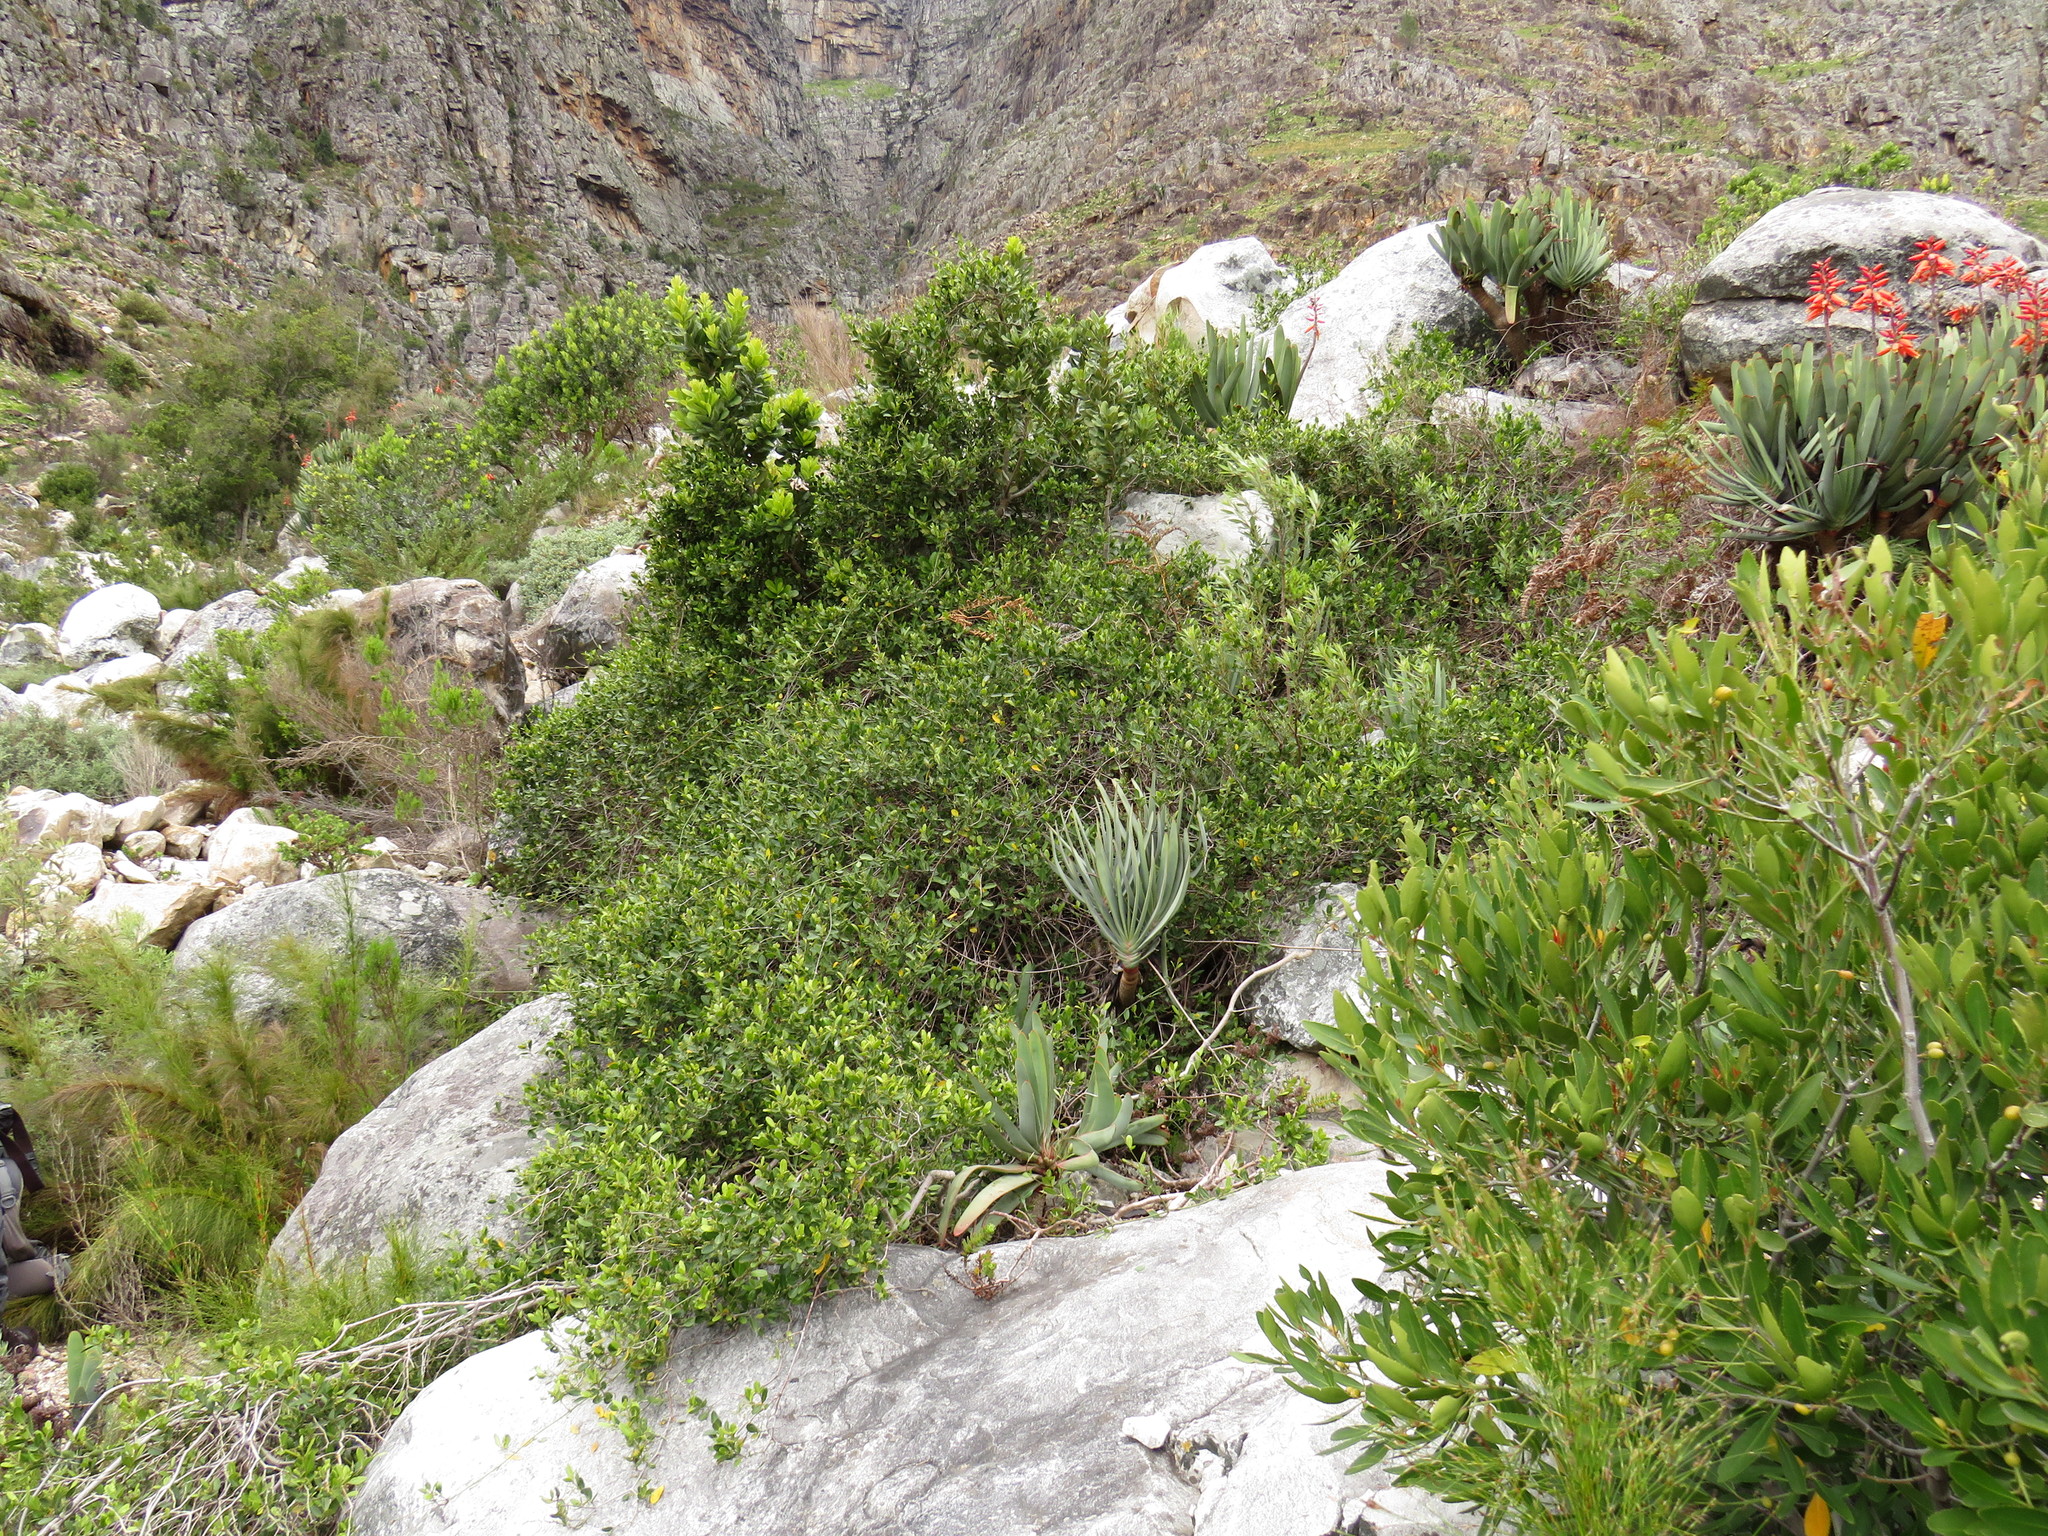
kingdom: Plantae
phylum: Tracheophyta
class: Magnoliopsida
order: Gentianales
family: Apocynaceae
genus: Secamone
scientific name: Secamone alpini
